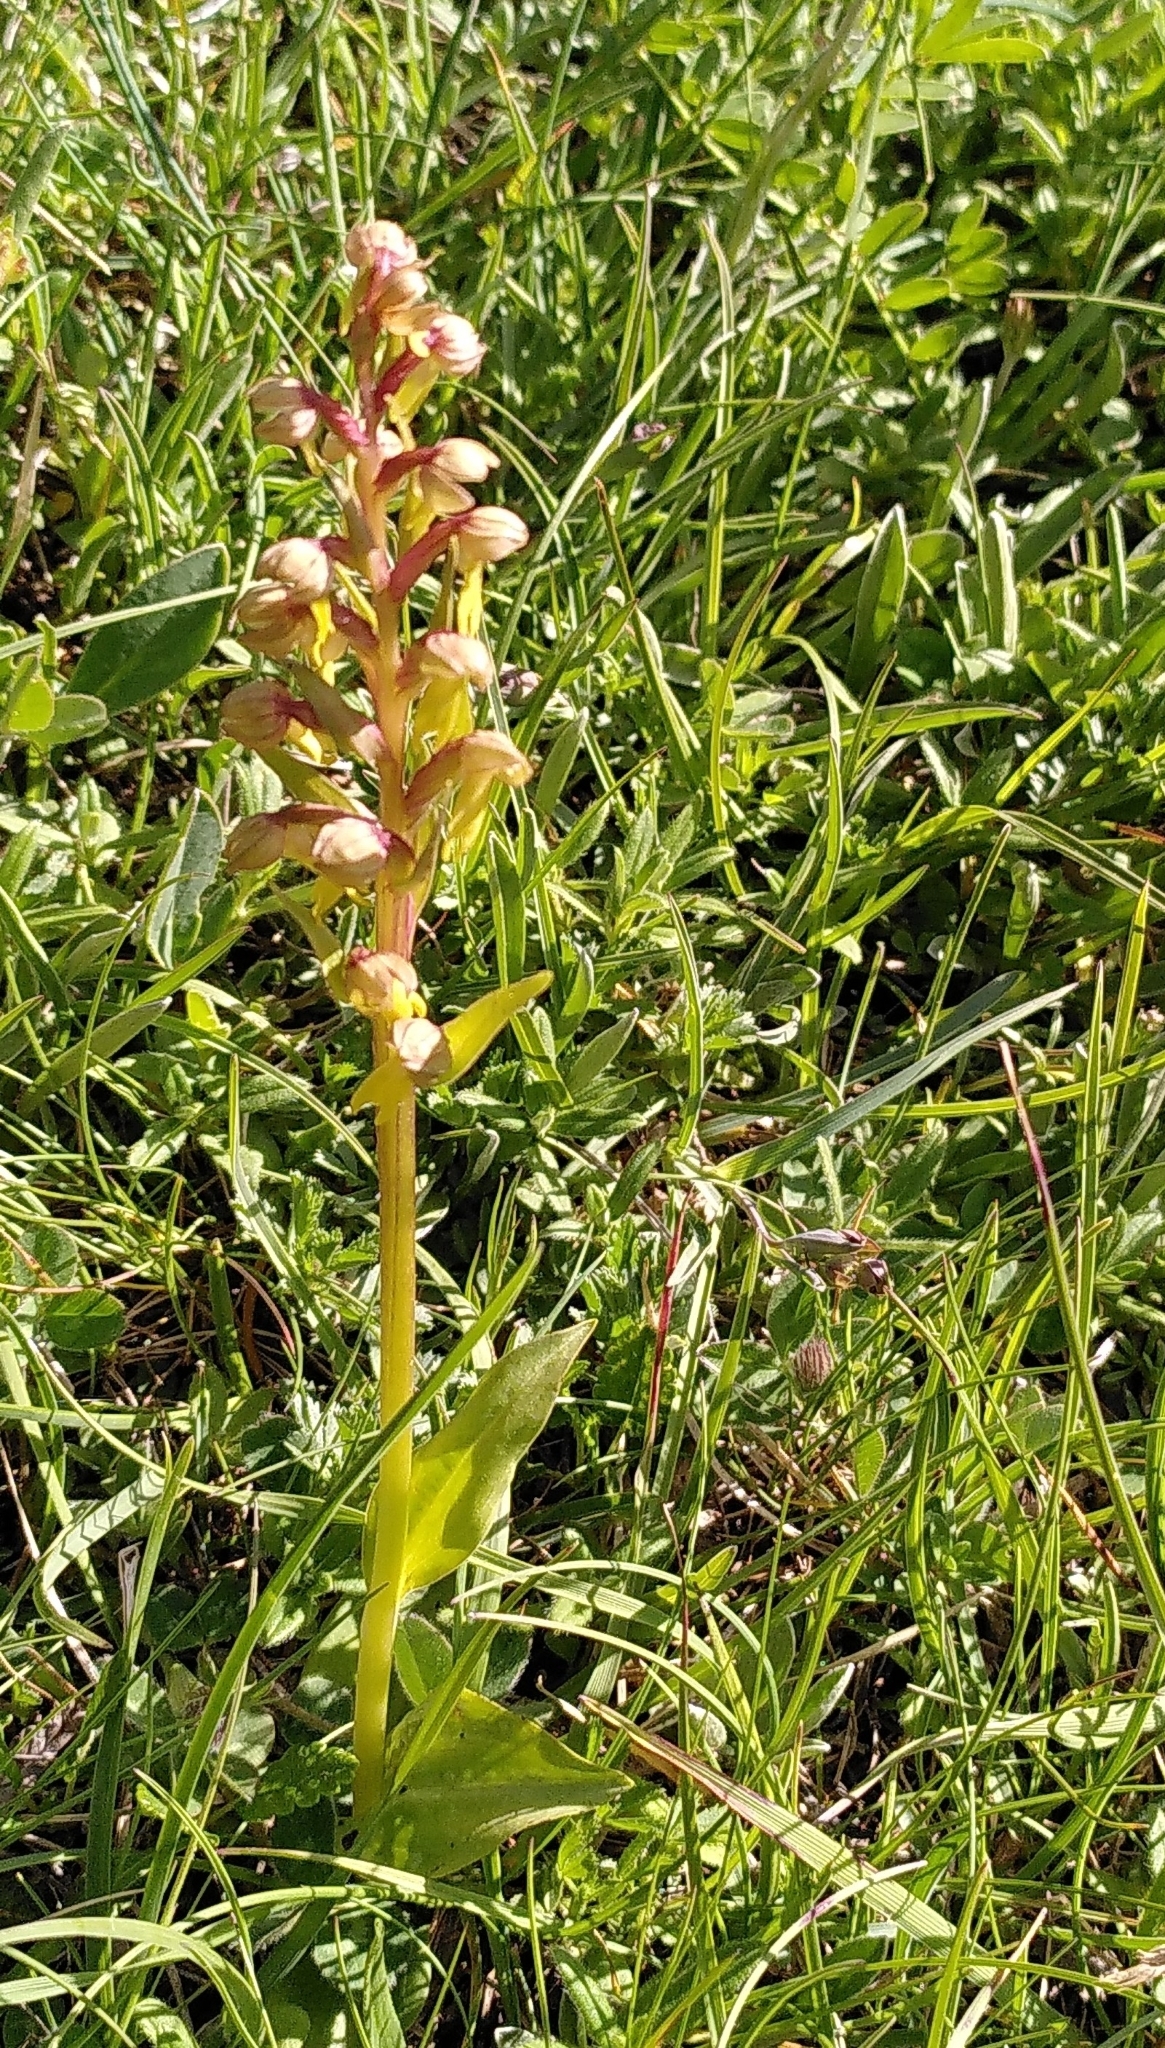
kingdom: Plantae
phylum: Tracheophyta
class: Liliopsida
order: Asparagales
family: Orchidaceae
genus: Dactylorhiza
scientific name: Dactylorhiza viridis
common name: Longbract frog orchid
